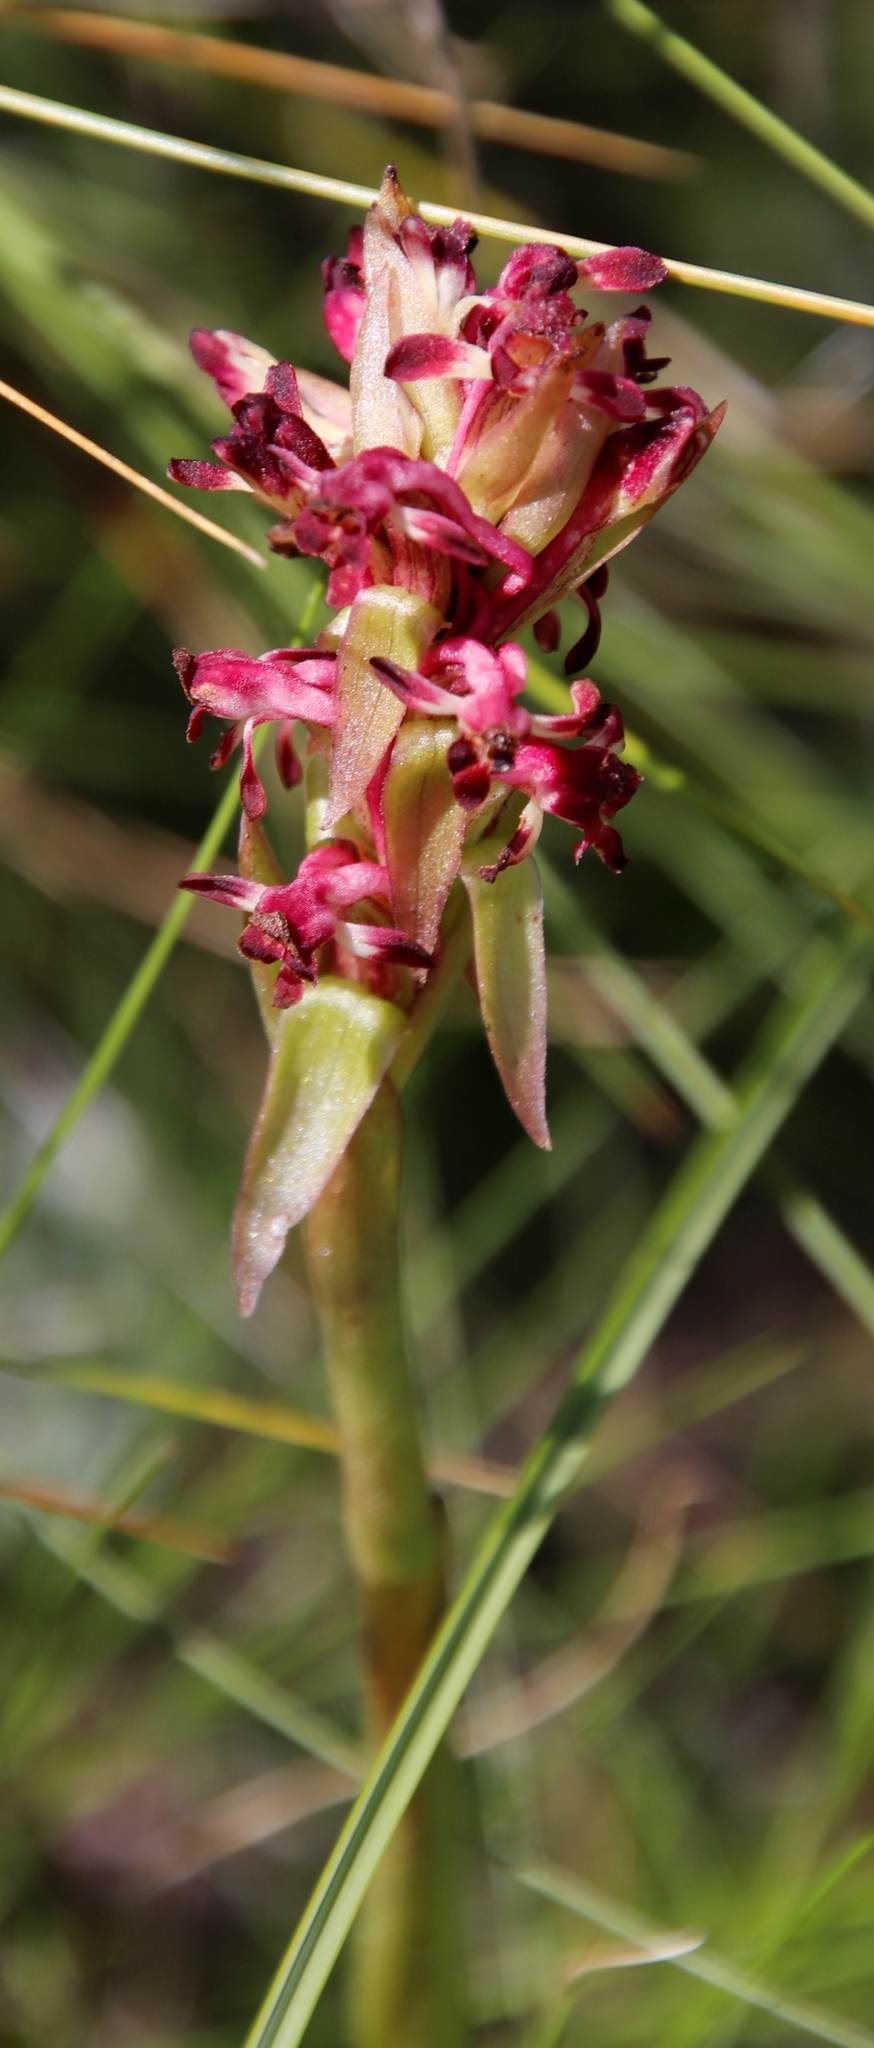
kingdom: Plantae
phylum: Tracheophyta
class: Liliopsida
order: Asparagales
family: Orchidaceae
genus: Satyrium
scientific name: Satyrium longicauda
